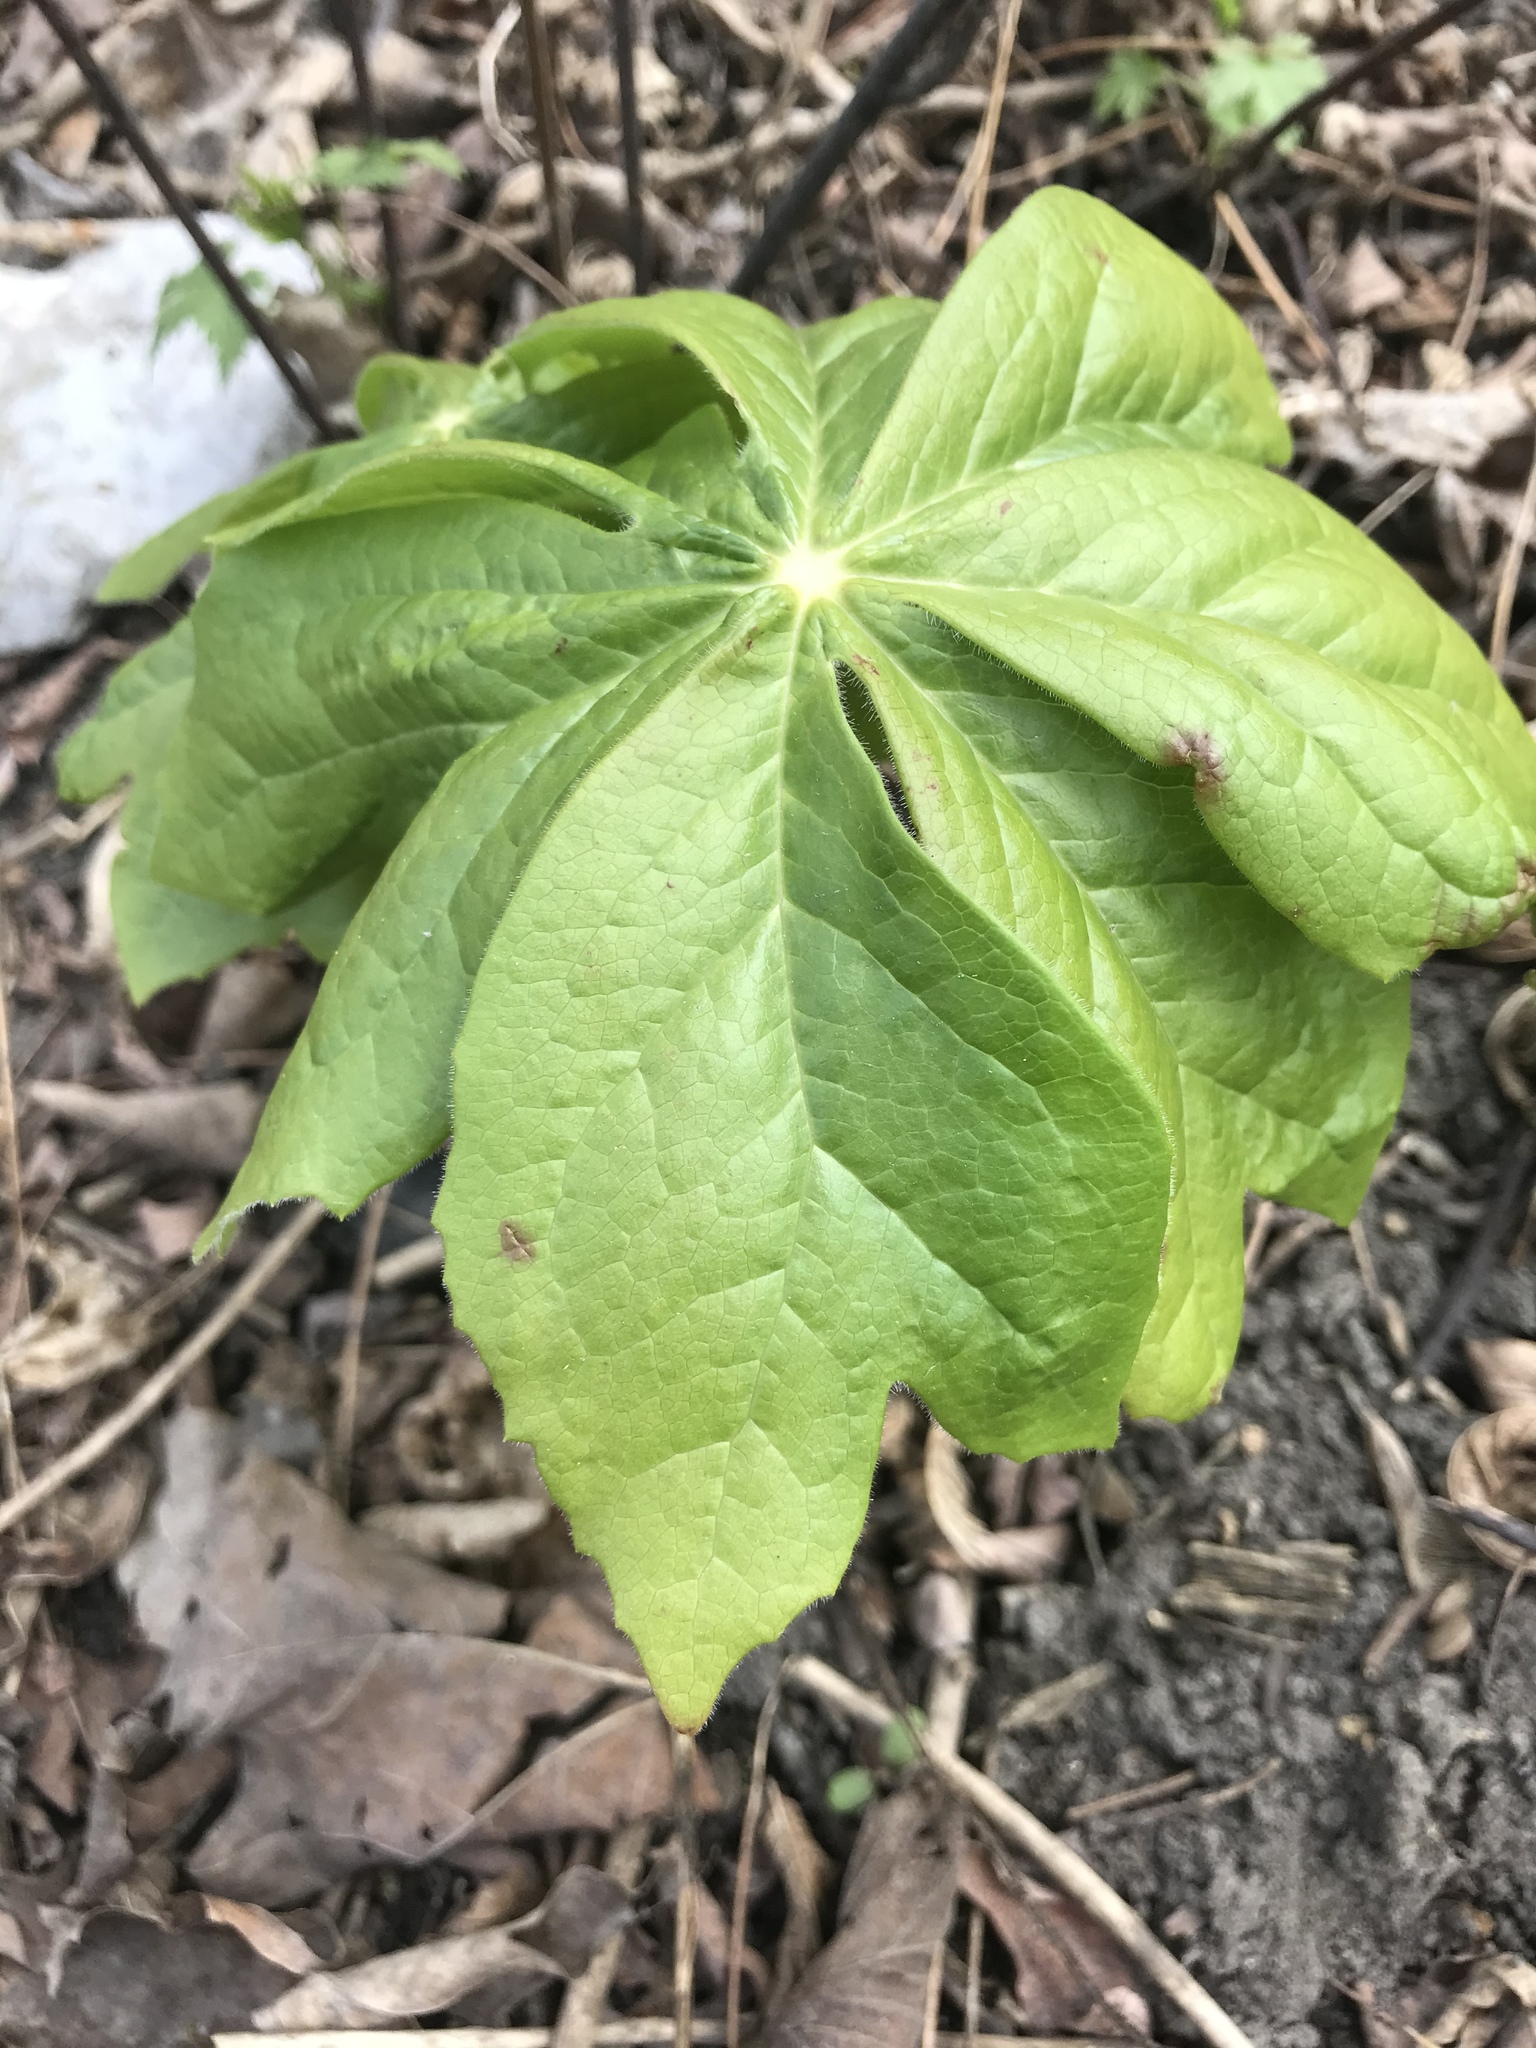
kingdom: Plantae
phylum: Tracheophyta
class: Magnoliopsida
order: Ranunculales
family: Berberidaceae
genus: Podophyllum
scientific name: Podophyllum peltatum
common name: Wild mandrake
